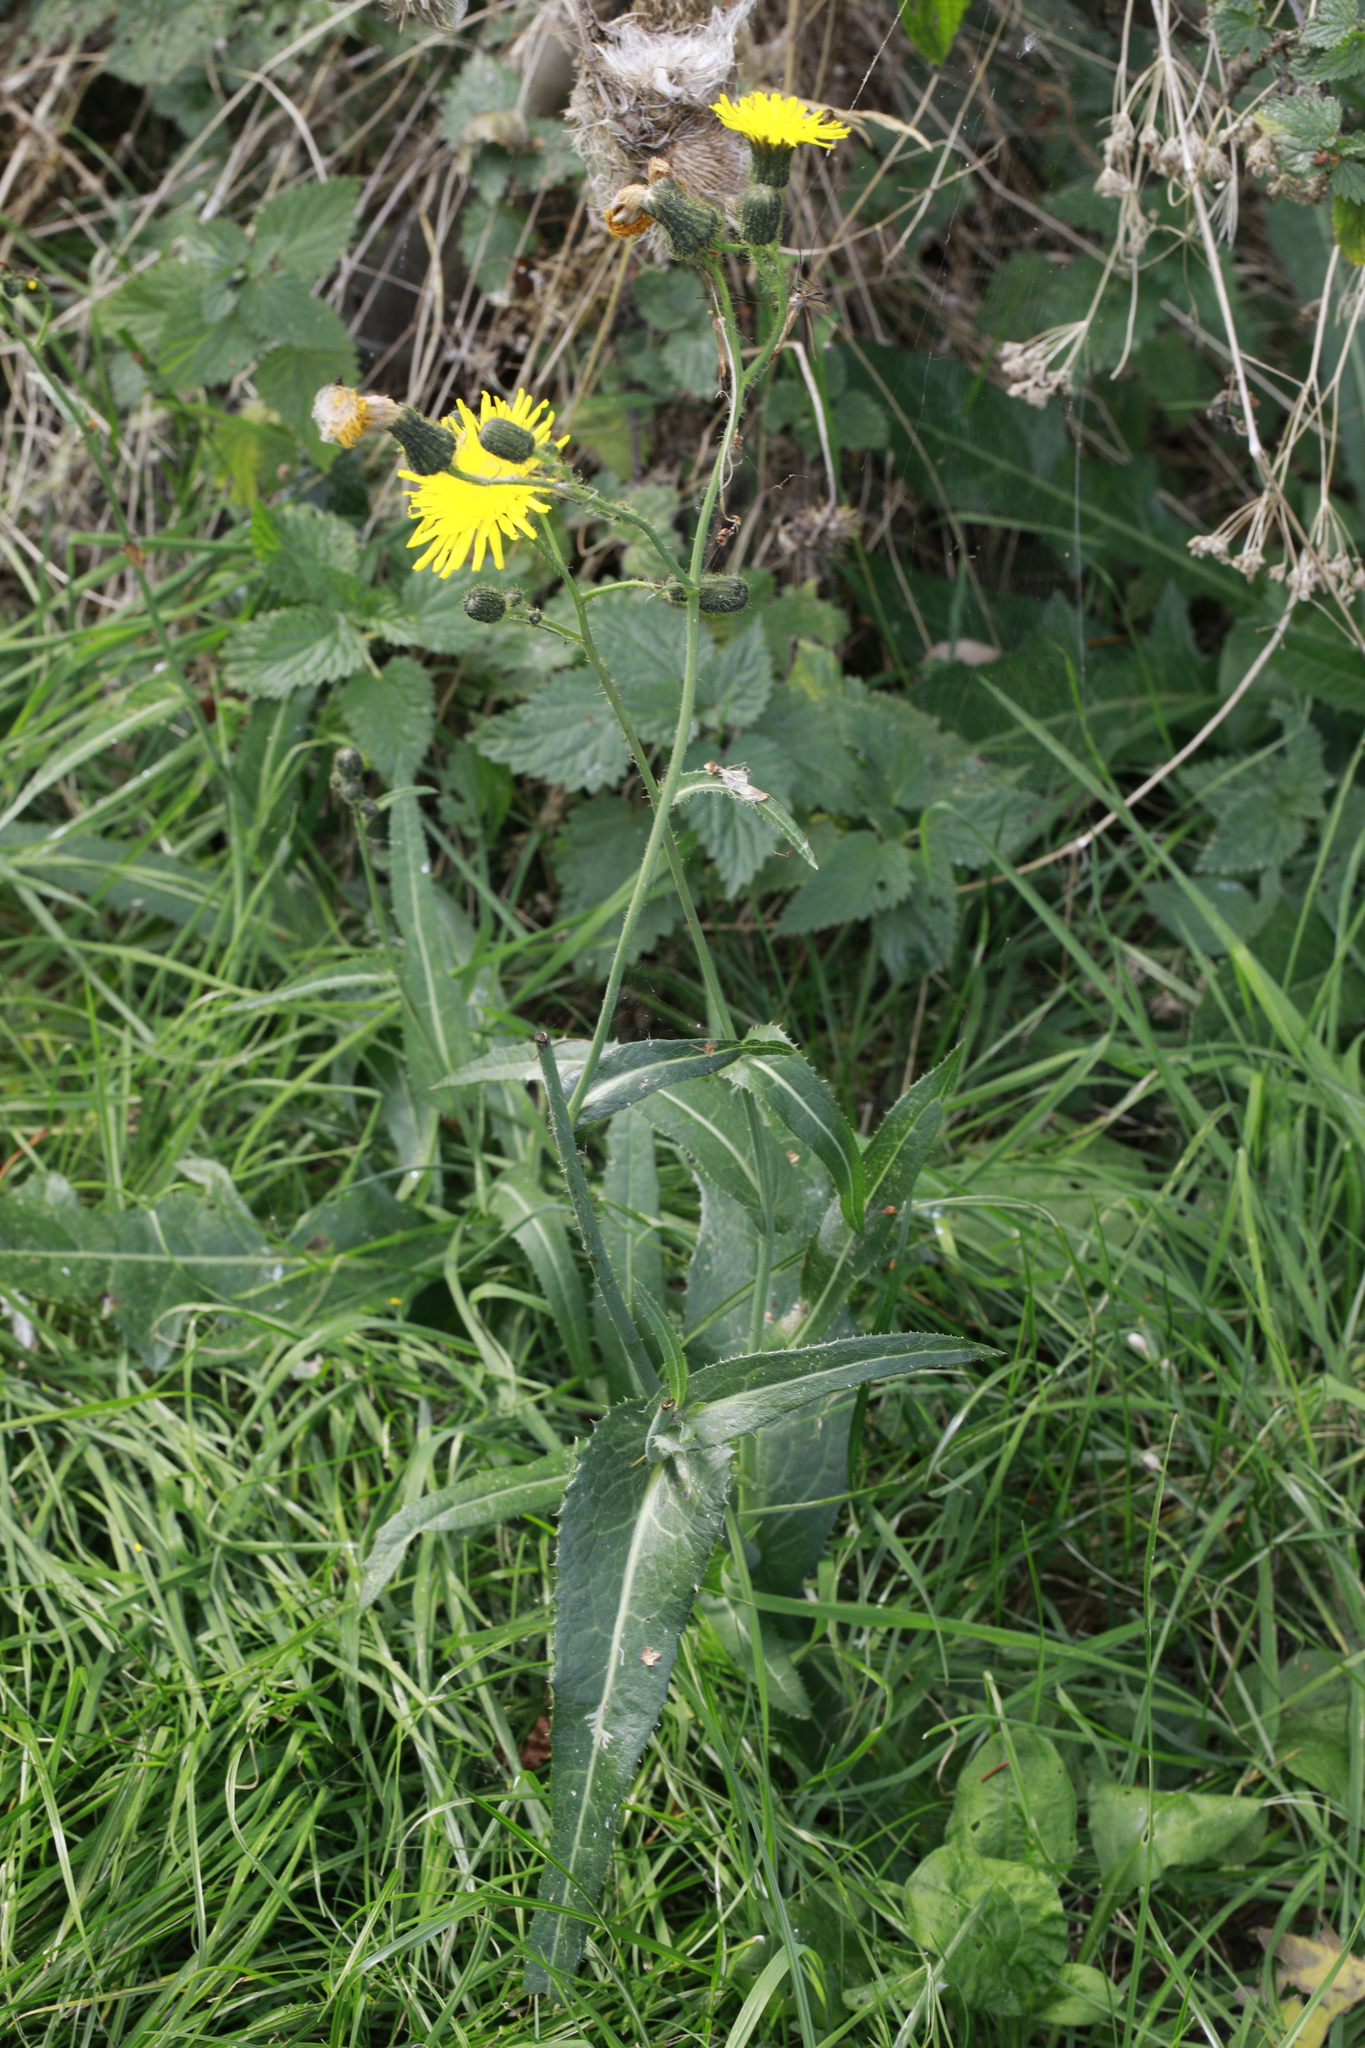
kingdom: Plantae
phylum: Tracheophyta
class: Magnoliopsida
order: Asterales
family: Asteraceae
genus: Sonchus
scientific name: Sonchus arvensis
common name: Perennial sow-thistle
